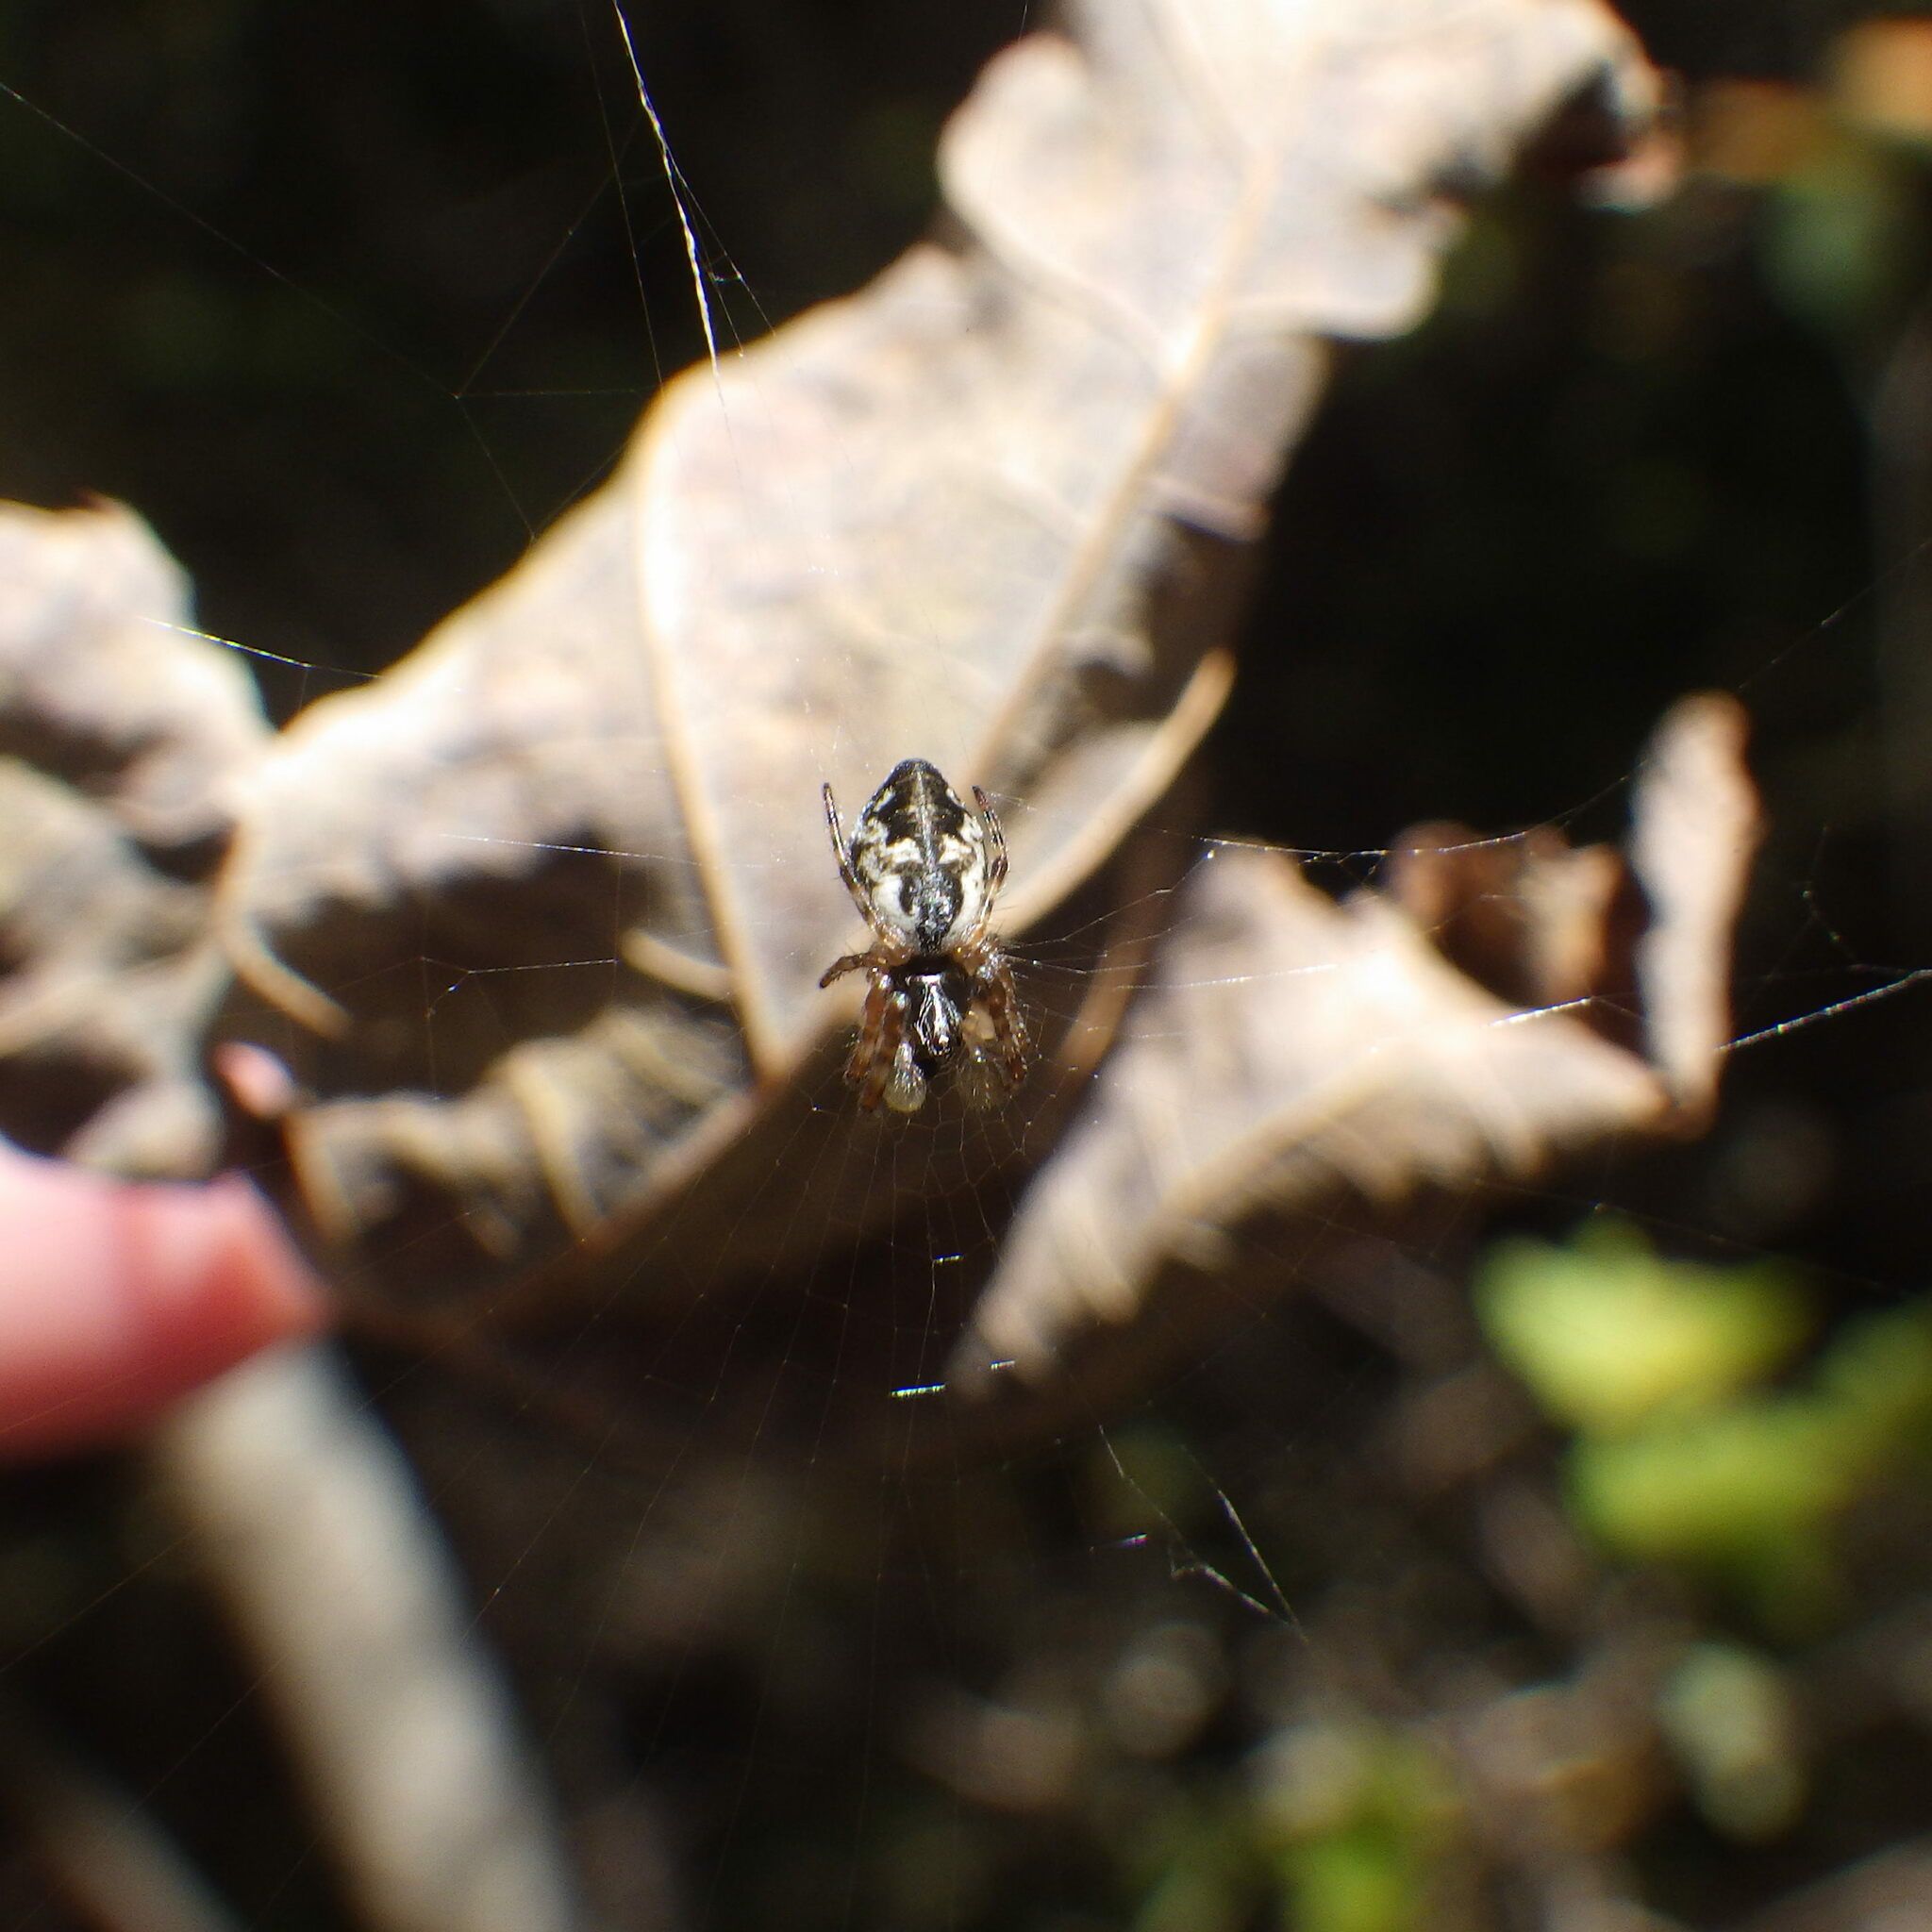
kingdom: Animalia
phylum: Arthropoda
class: Arachnida
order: Araneae
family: Araneidae
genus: Cyclosa
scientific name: Cyclosa conica
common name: Conical trashline orbweaver
